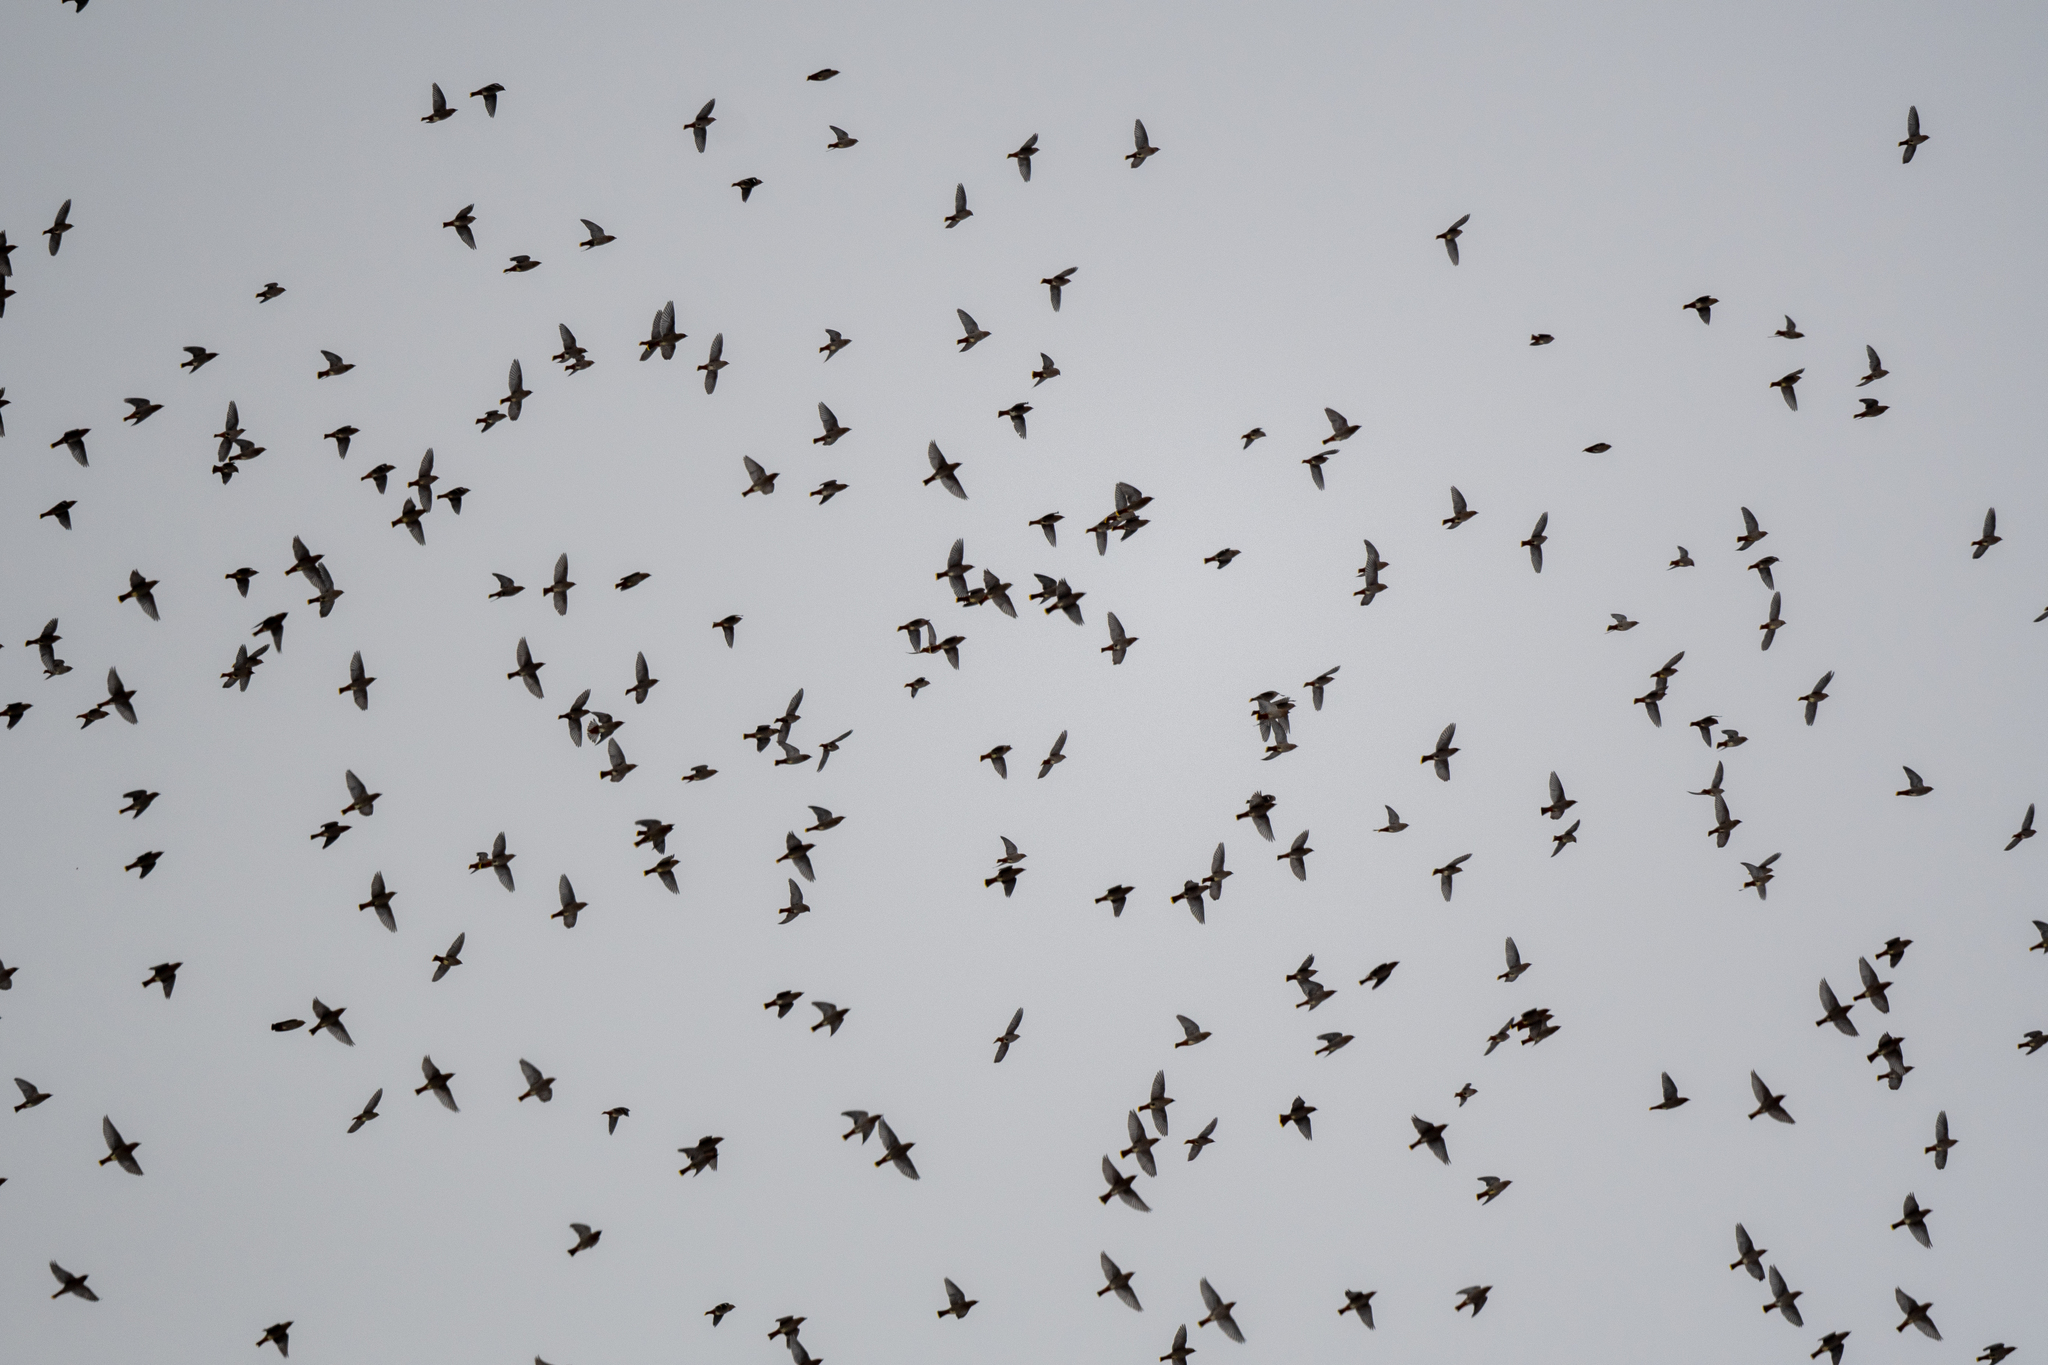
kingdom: Animalia
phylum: Chordata
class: Aves
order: Passeriformes
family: Bombycillidae
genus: Bombycilla
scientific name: Bombycilla garrulus
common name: Bohemian waxwing
